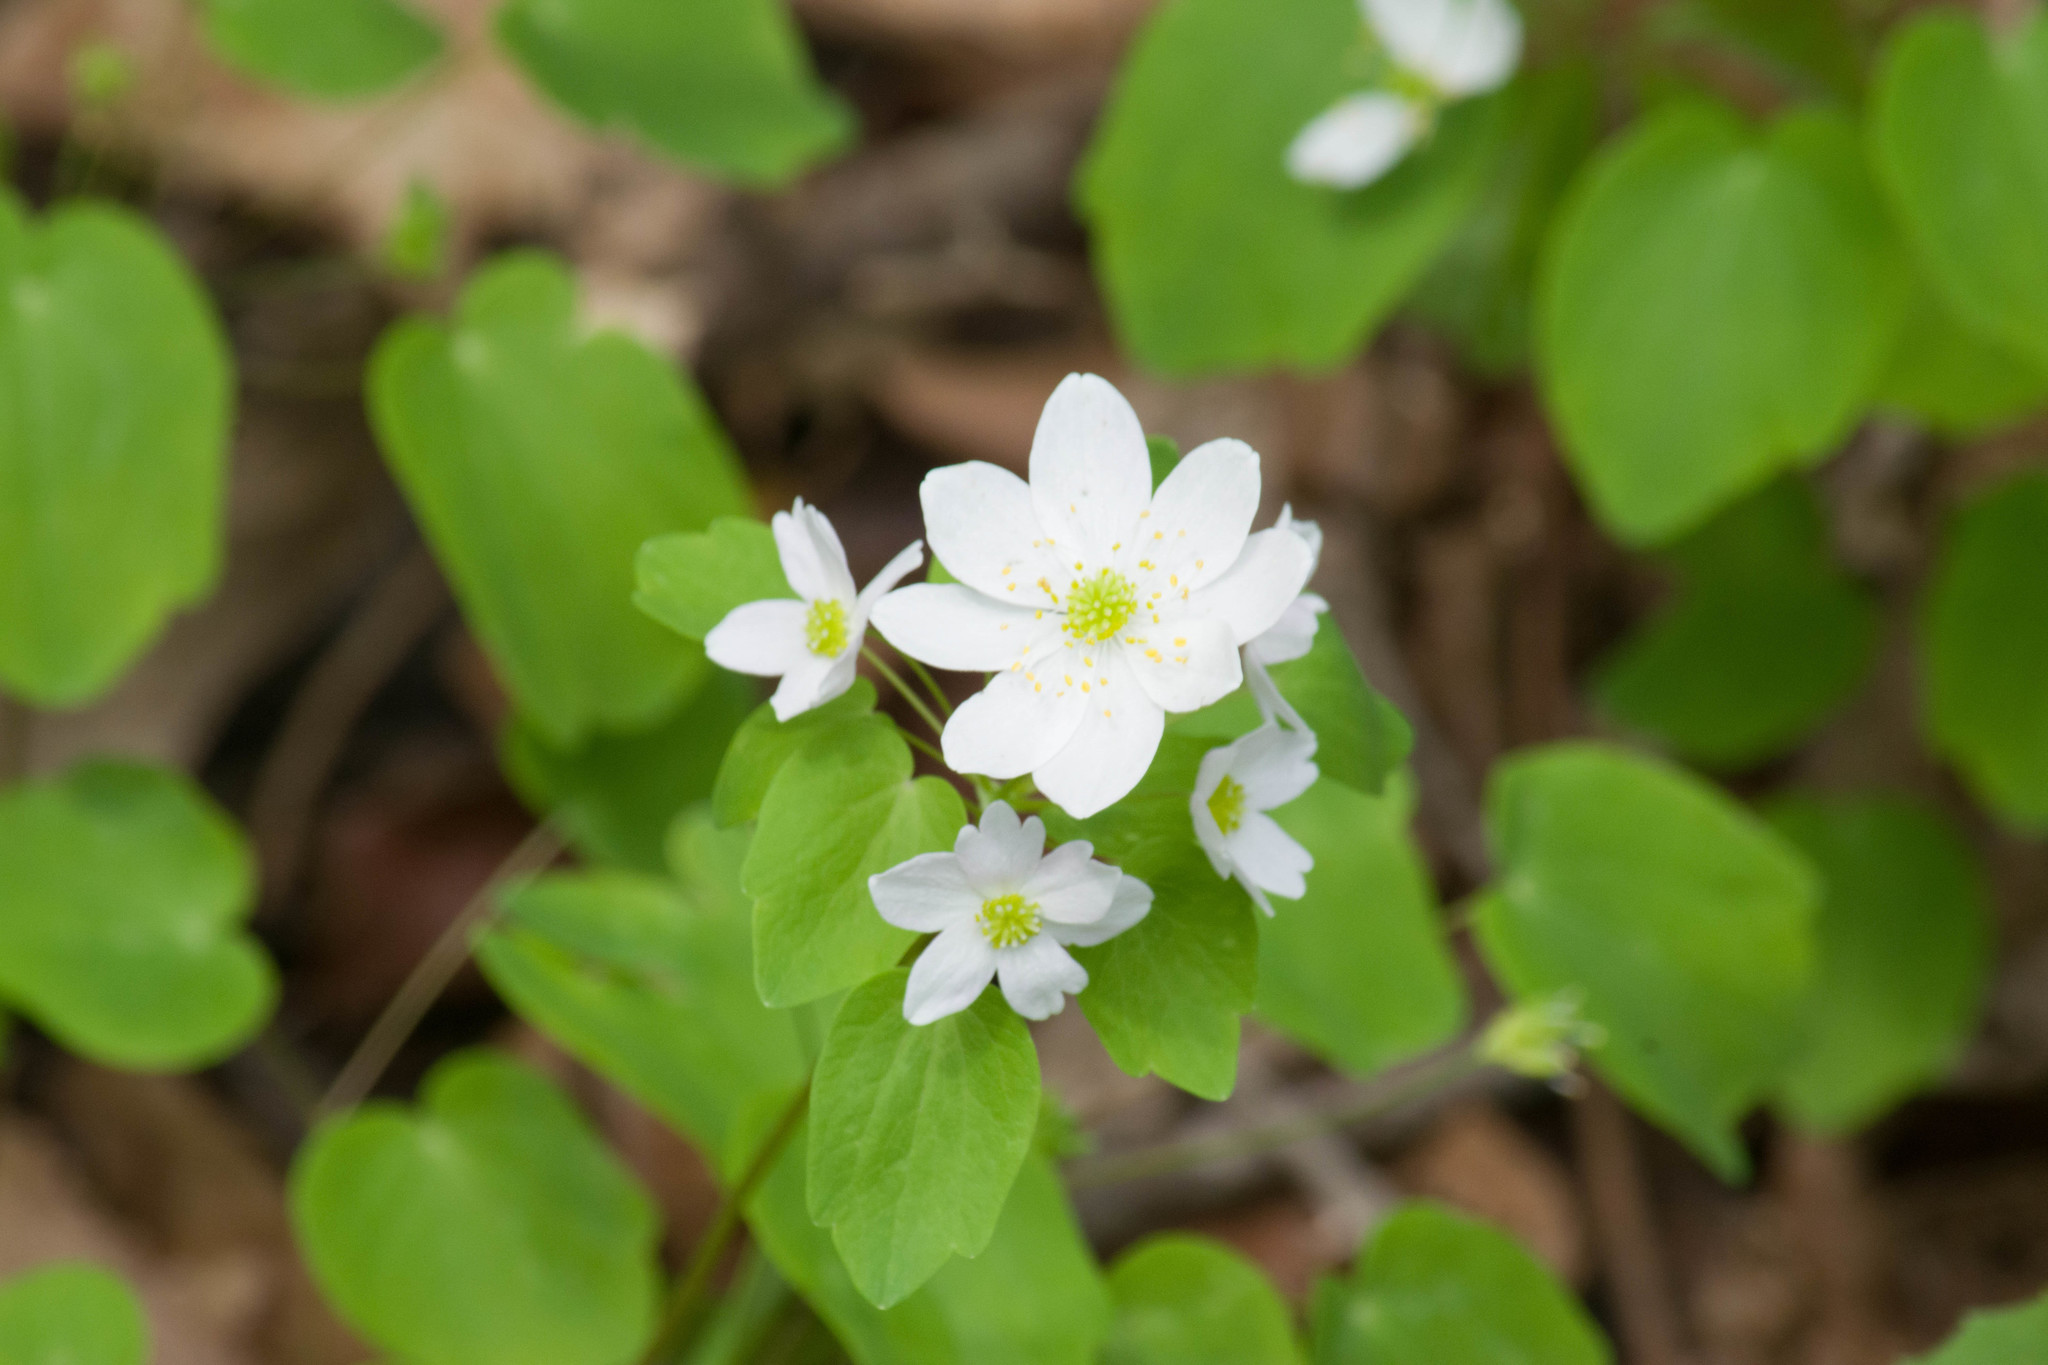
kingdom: Plantae
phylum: Tracheophyta
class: Magnoliopsida
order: Ranunculales
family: Ranunculaceae
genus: Thalictrum
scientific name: Thalictrum thalictroides
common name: Rue-anemone
